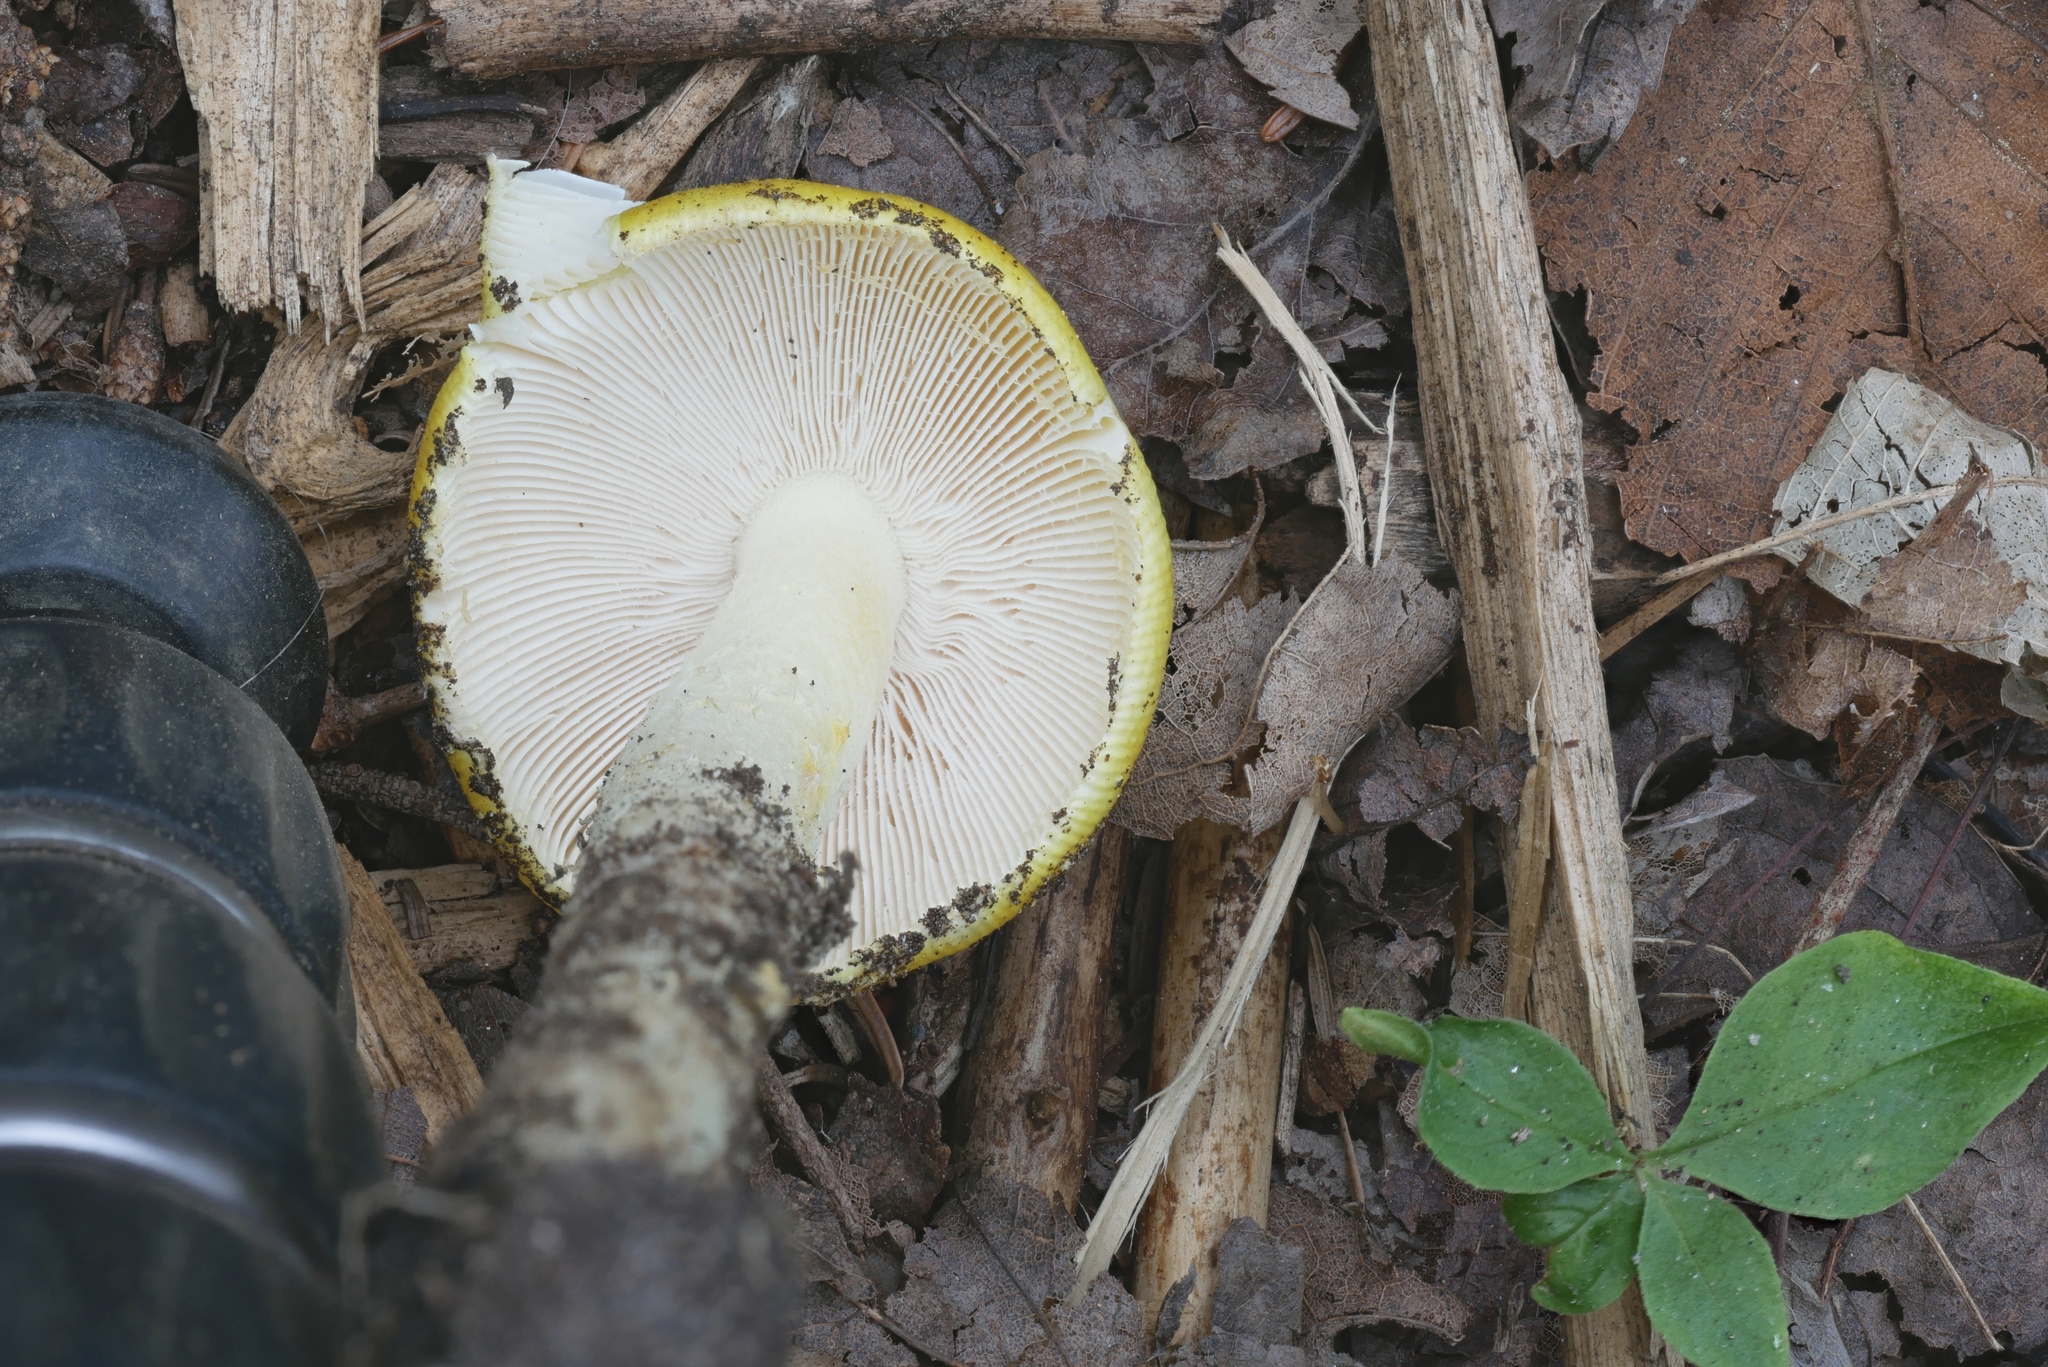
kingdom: Fungi
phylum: Basidiomycota
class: Agaricomycetes
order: Agaricales
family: Amanitaceae
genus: Amanita
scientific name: Amanita elongata
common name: Peck's yellow dust amanita
